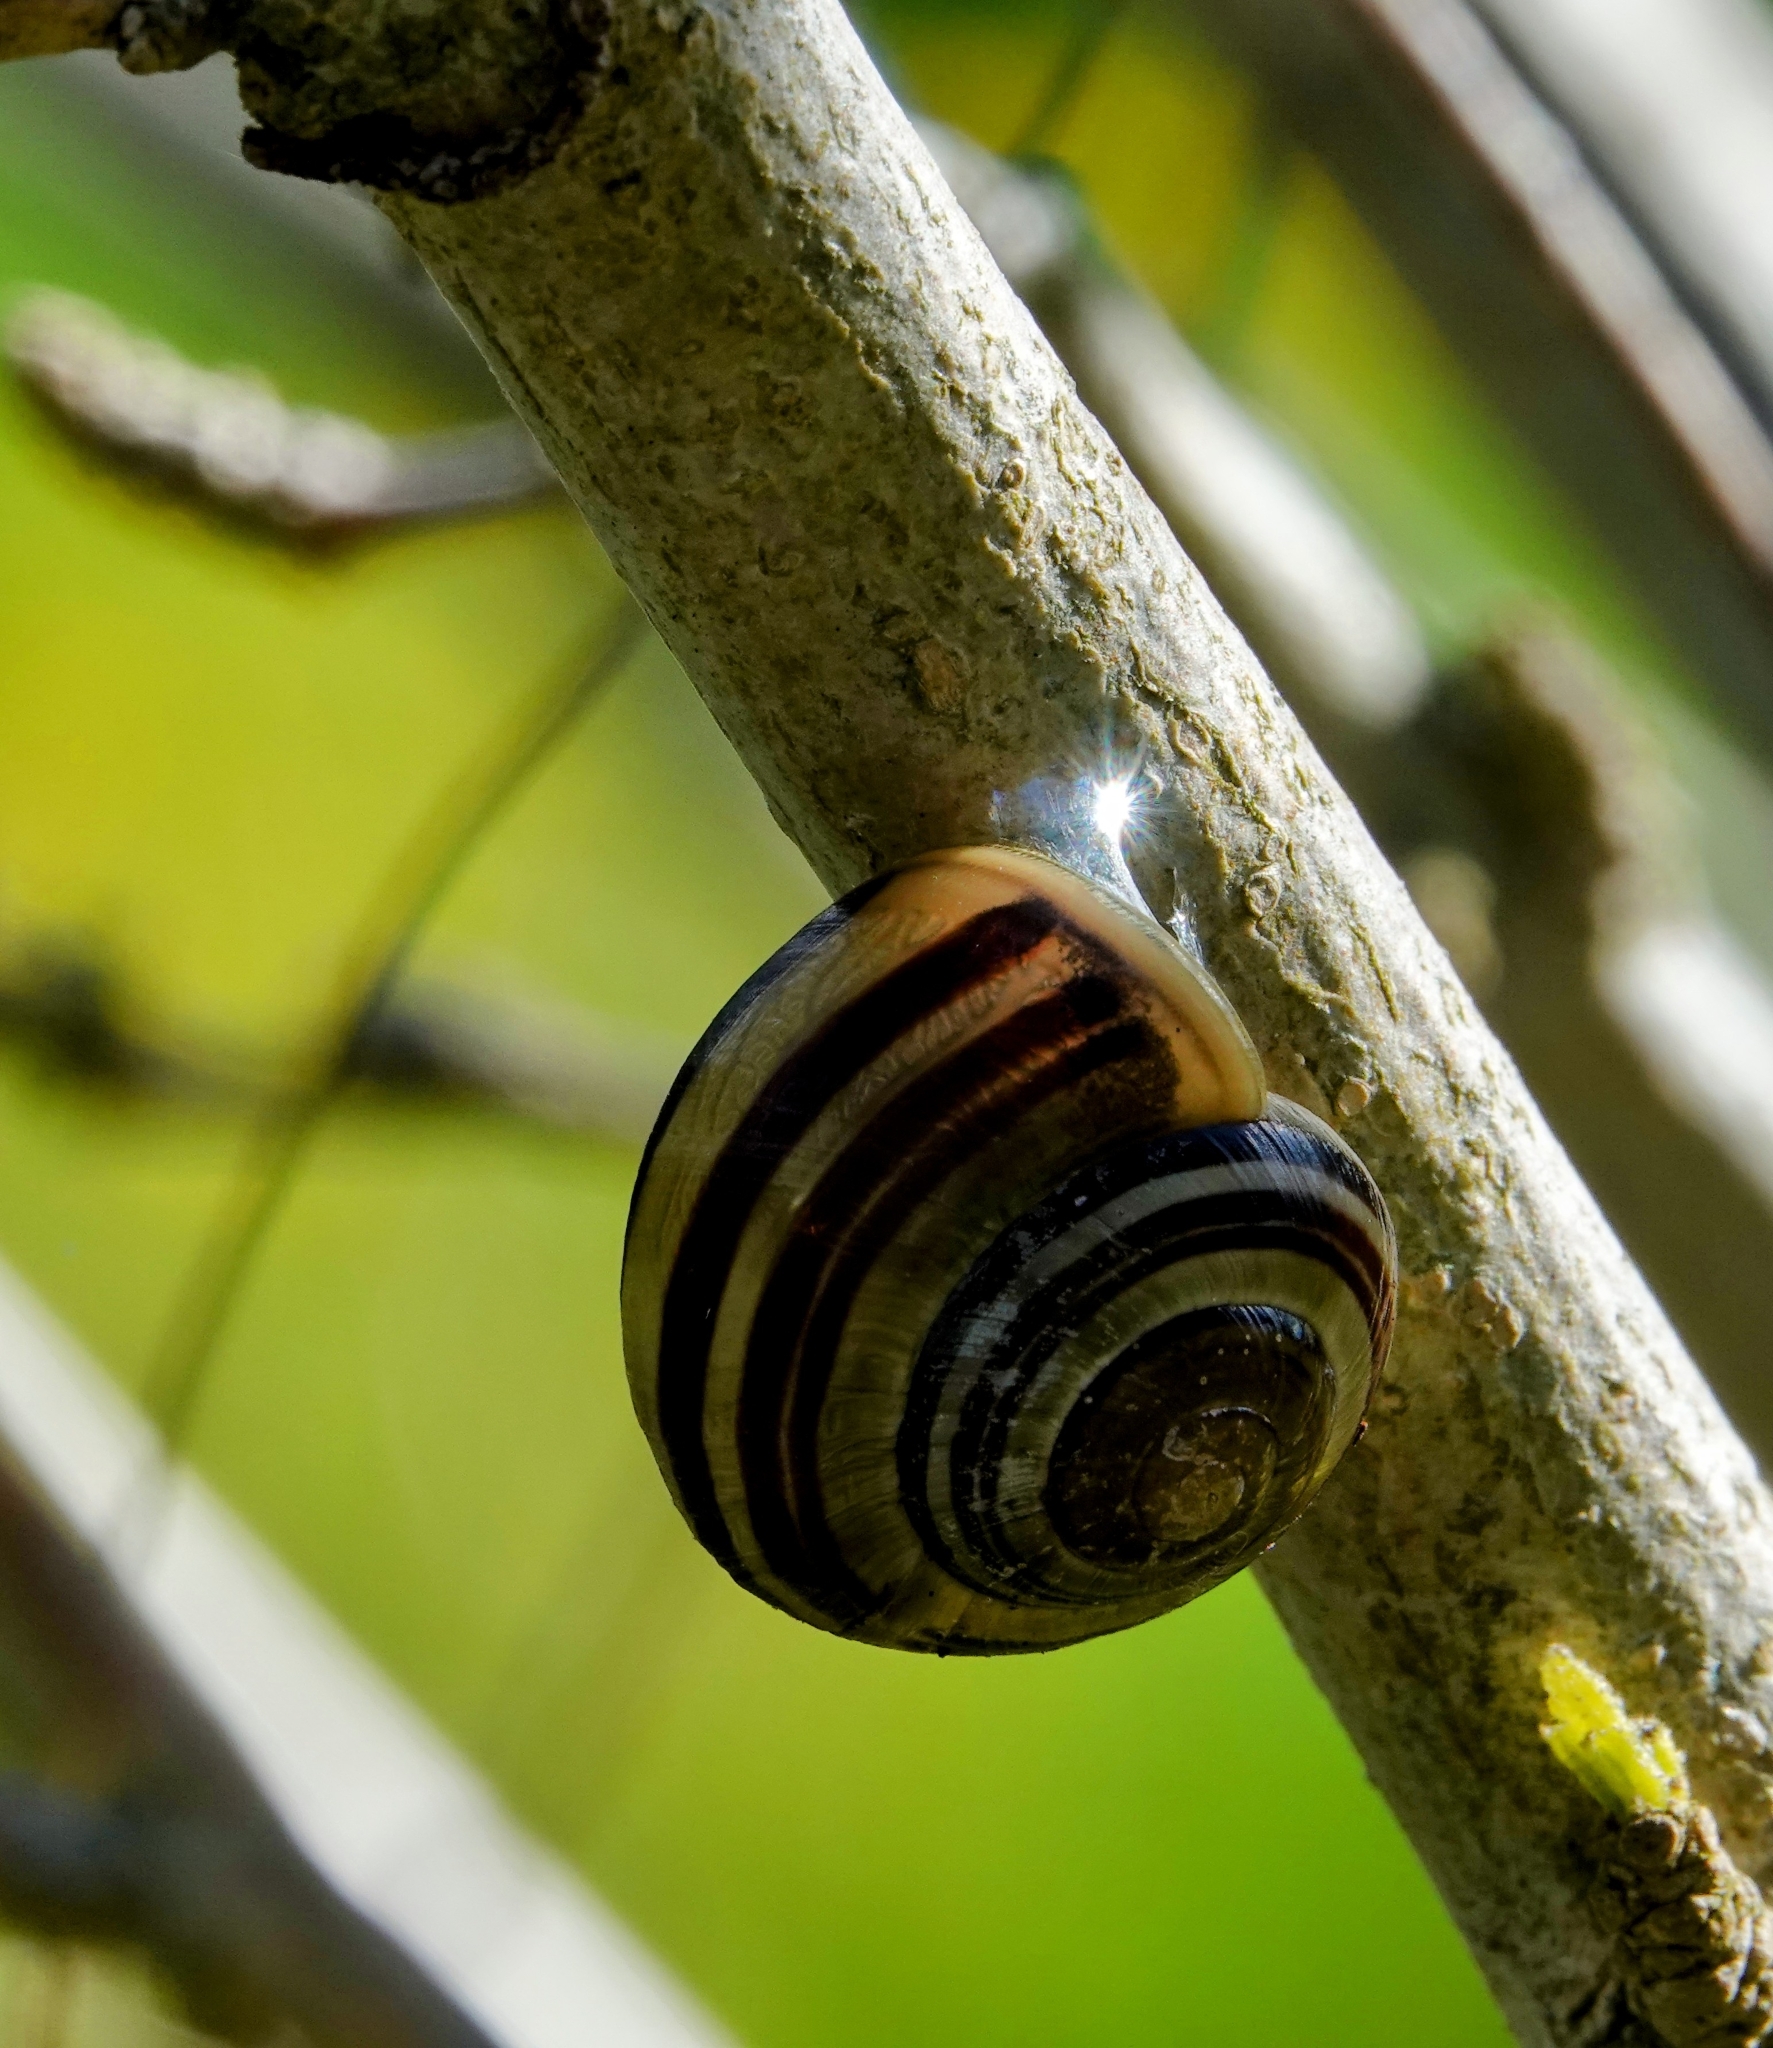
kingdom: Animalia
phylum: Mollusca
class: Gastropoda
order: Stylommatophora
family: Helicidae
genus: Cepaea
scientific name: Cepaea
